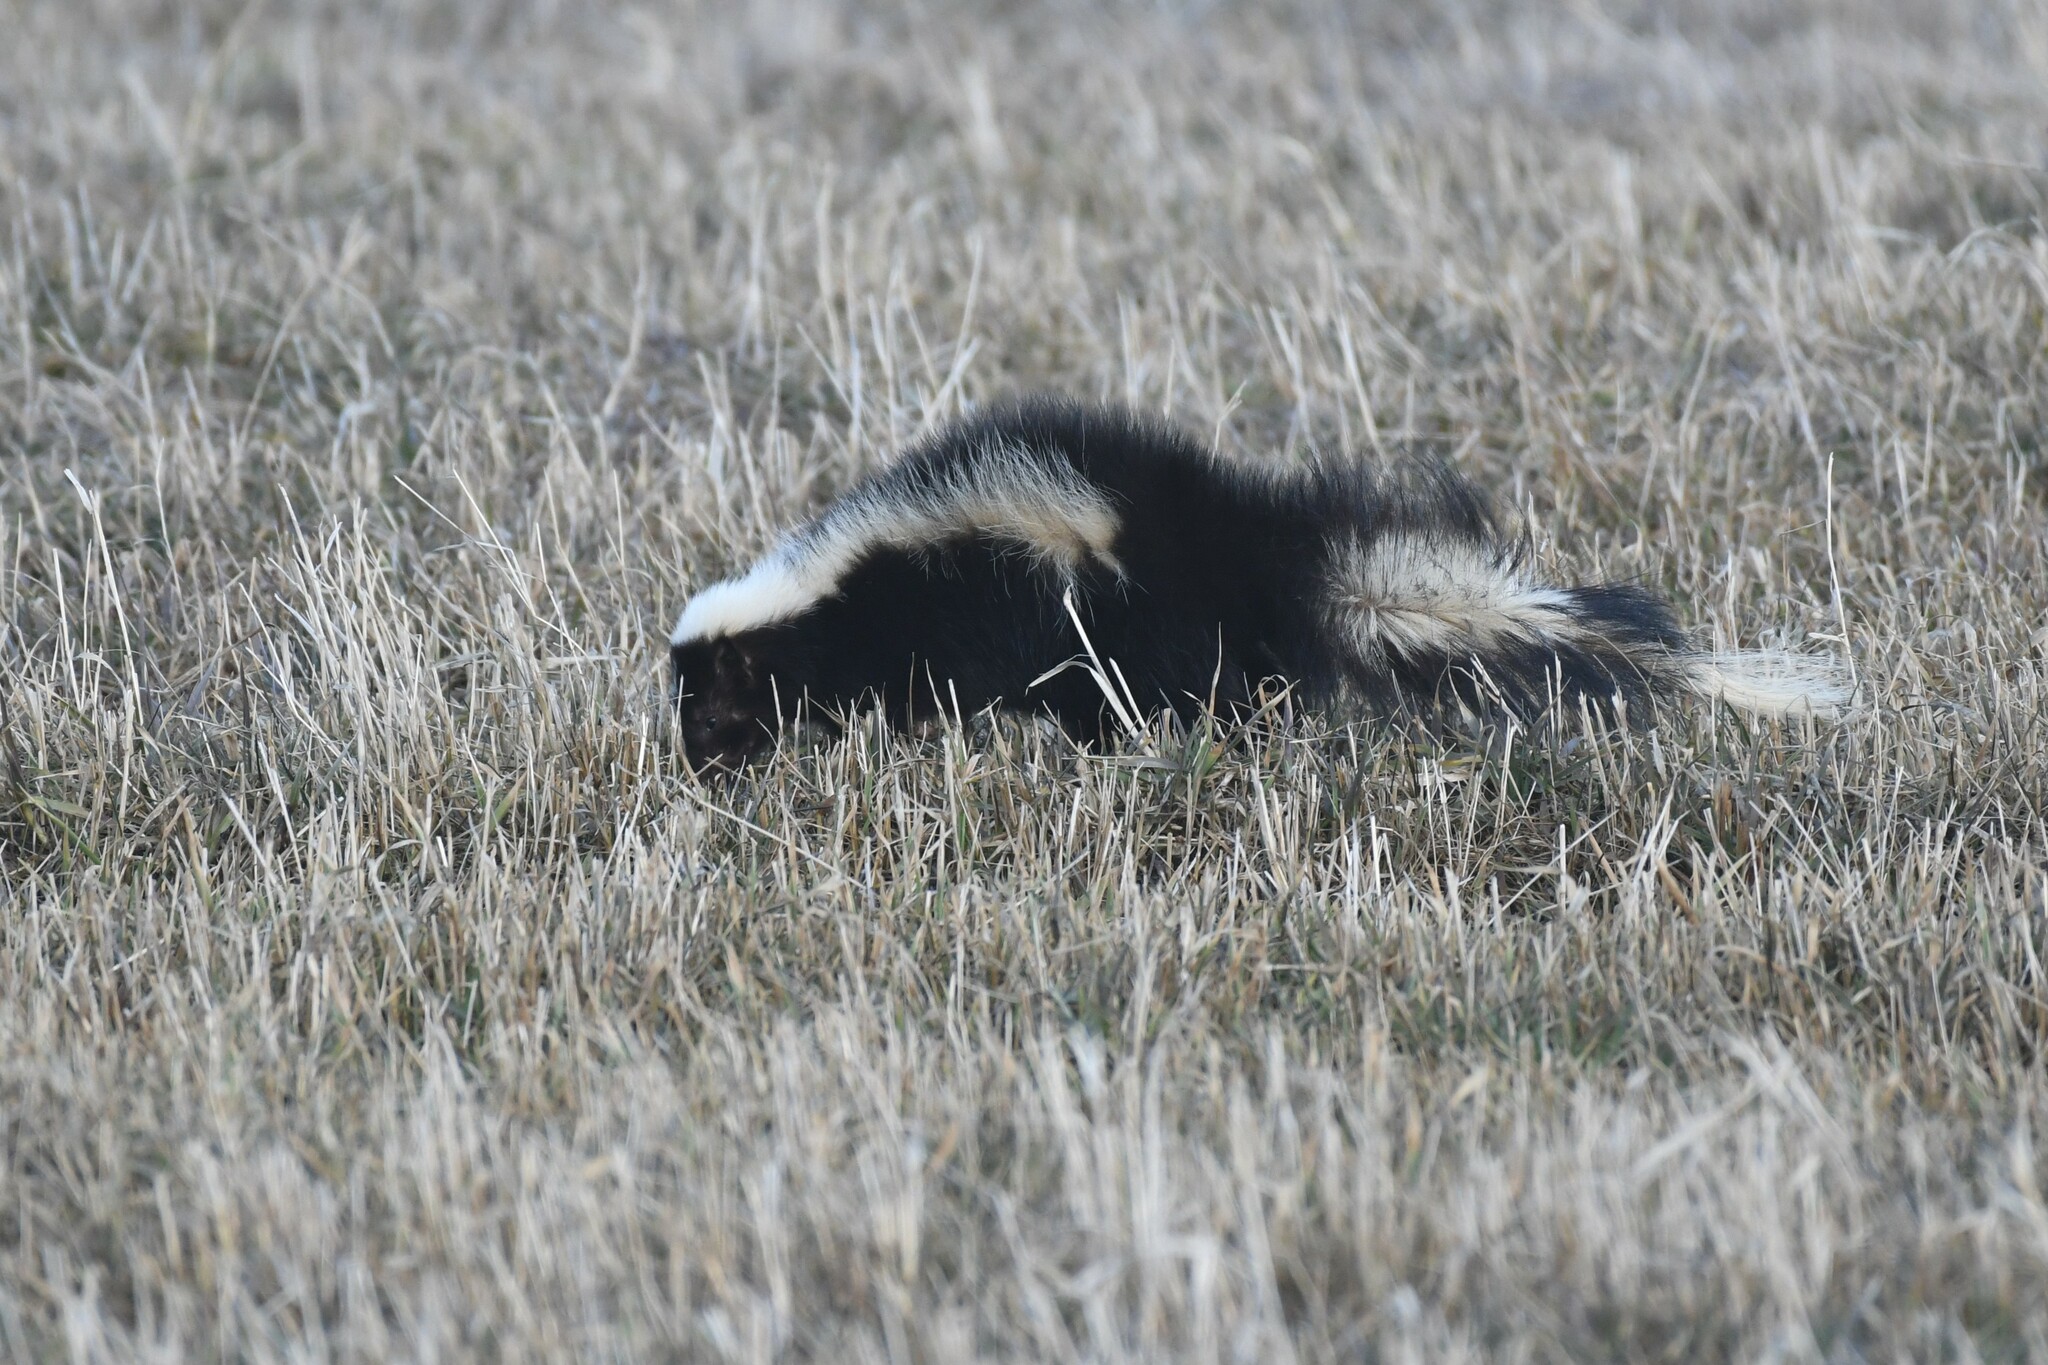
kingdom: Animalia
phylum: Chordata
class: Mammalia
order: Carnivora
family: Mephitidae
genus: Mephitis
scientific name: Mephitis mephitis
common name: Striped skunk
